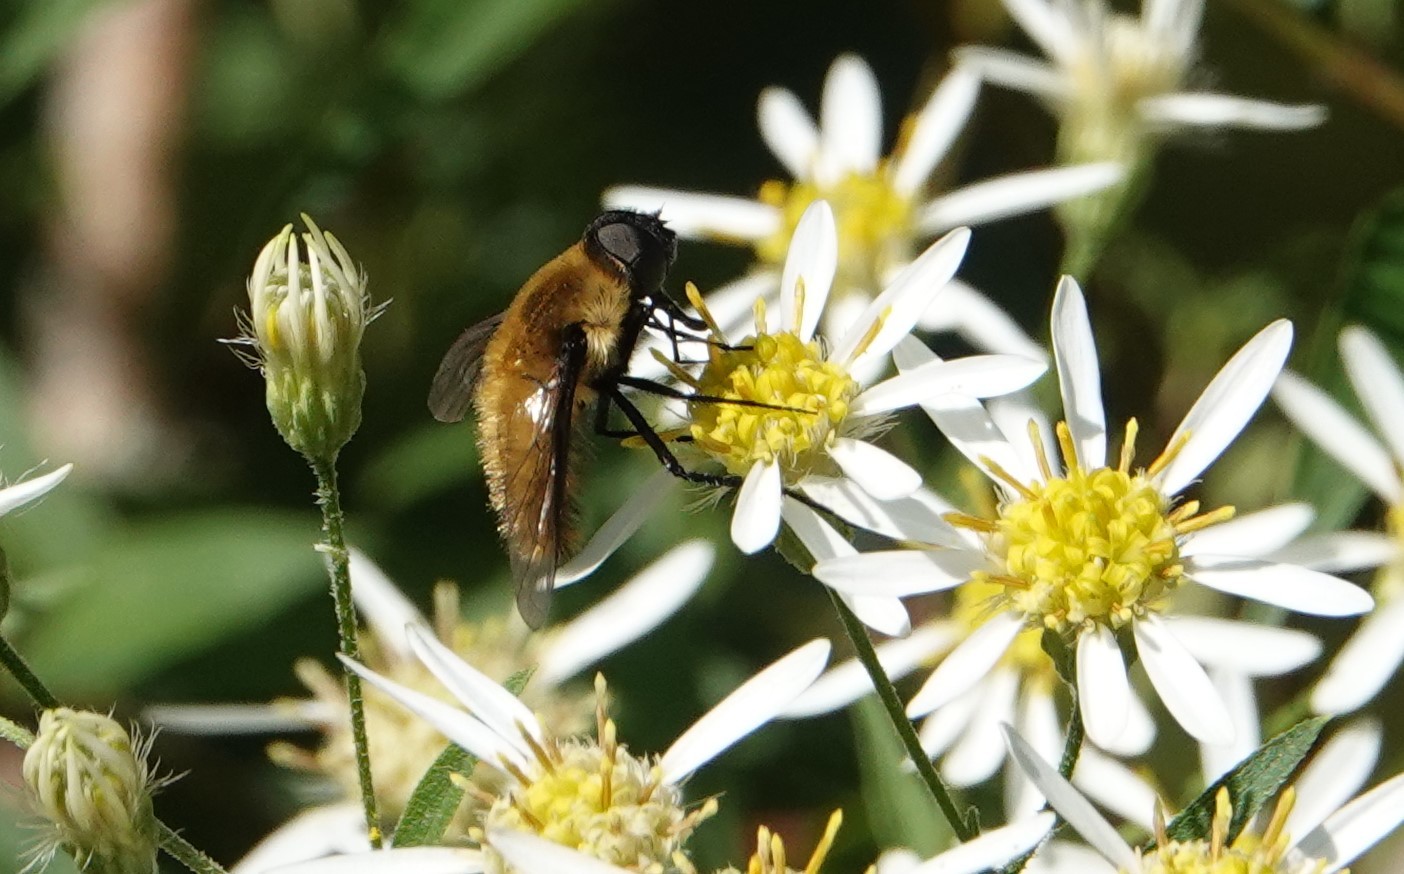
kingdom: Animalia
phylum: Arthropoda
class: Insecta
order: Diptera
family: Bombyliidae
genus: Villa
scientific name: Villa fulviana
